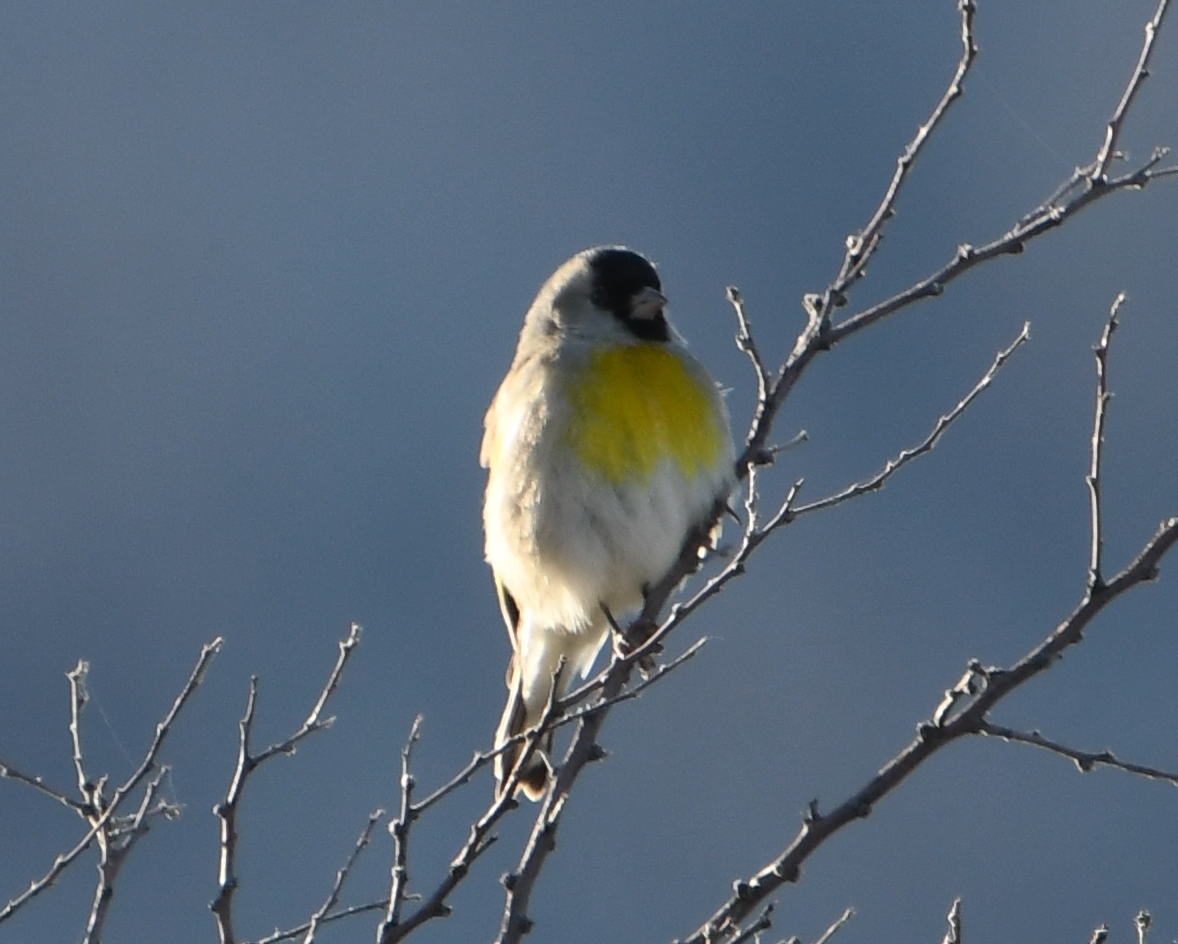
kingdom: Animalia
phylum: Chordata
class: Aves
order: Passeriformes
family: Fringillidae
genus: Spinus
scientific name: Spinus lawrencei
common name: Lawrence's goldfinch
